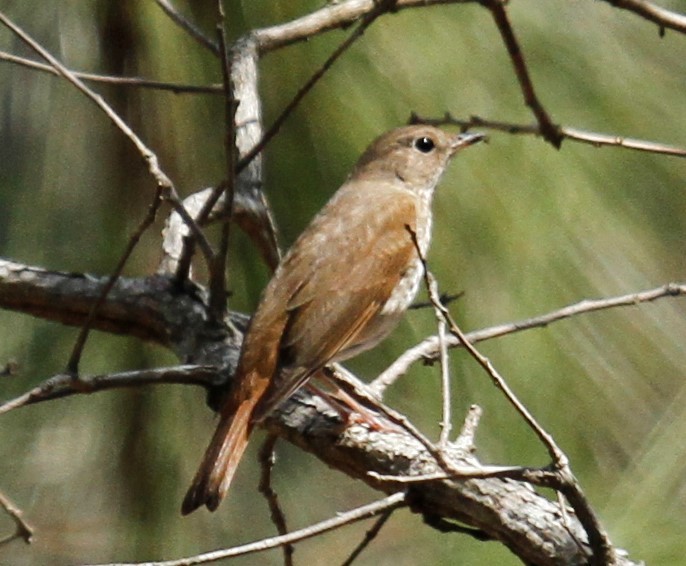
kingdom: Animalia
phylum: Chordata
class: Aves
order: Passeriformes
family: Turdidae
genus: Catharus
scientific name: Catharus guttatus
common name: Hermit thrush
